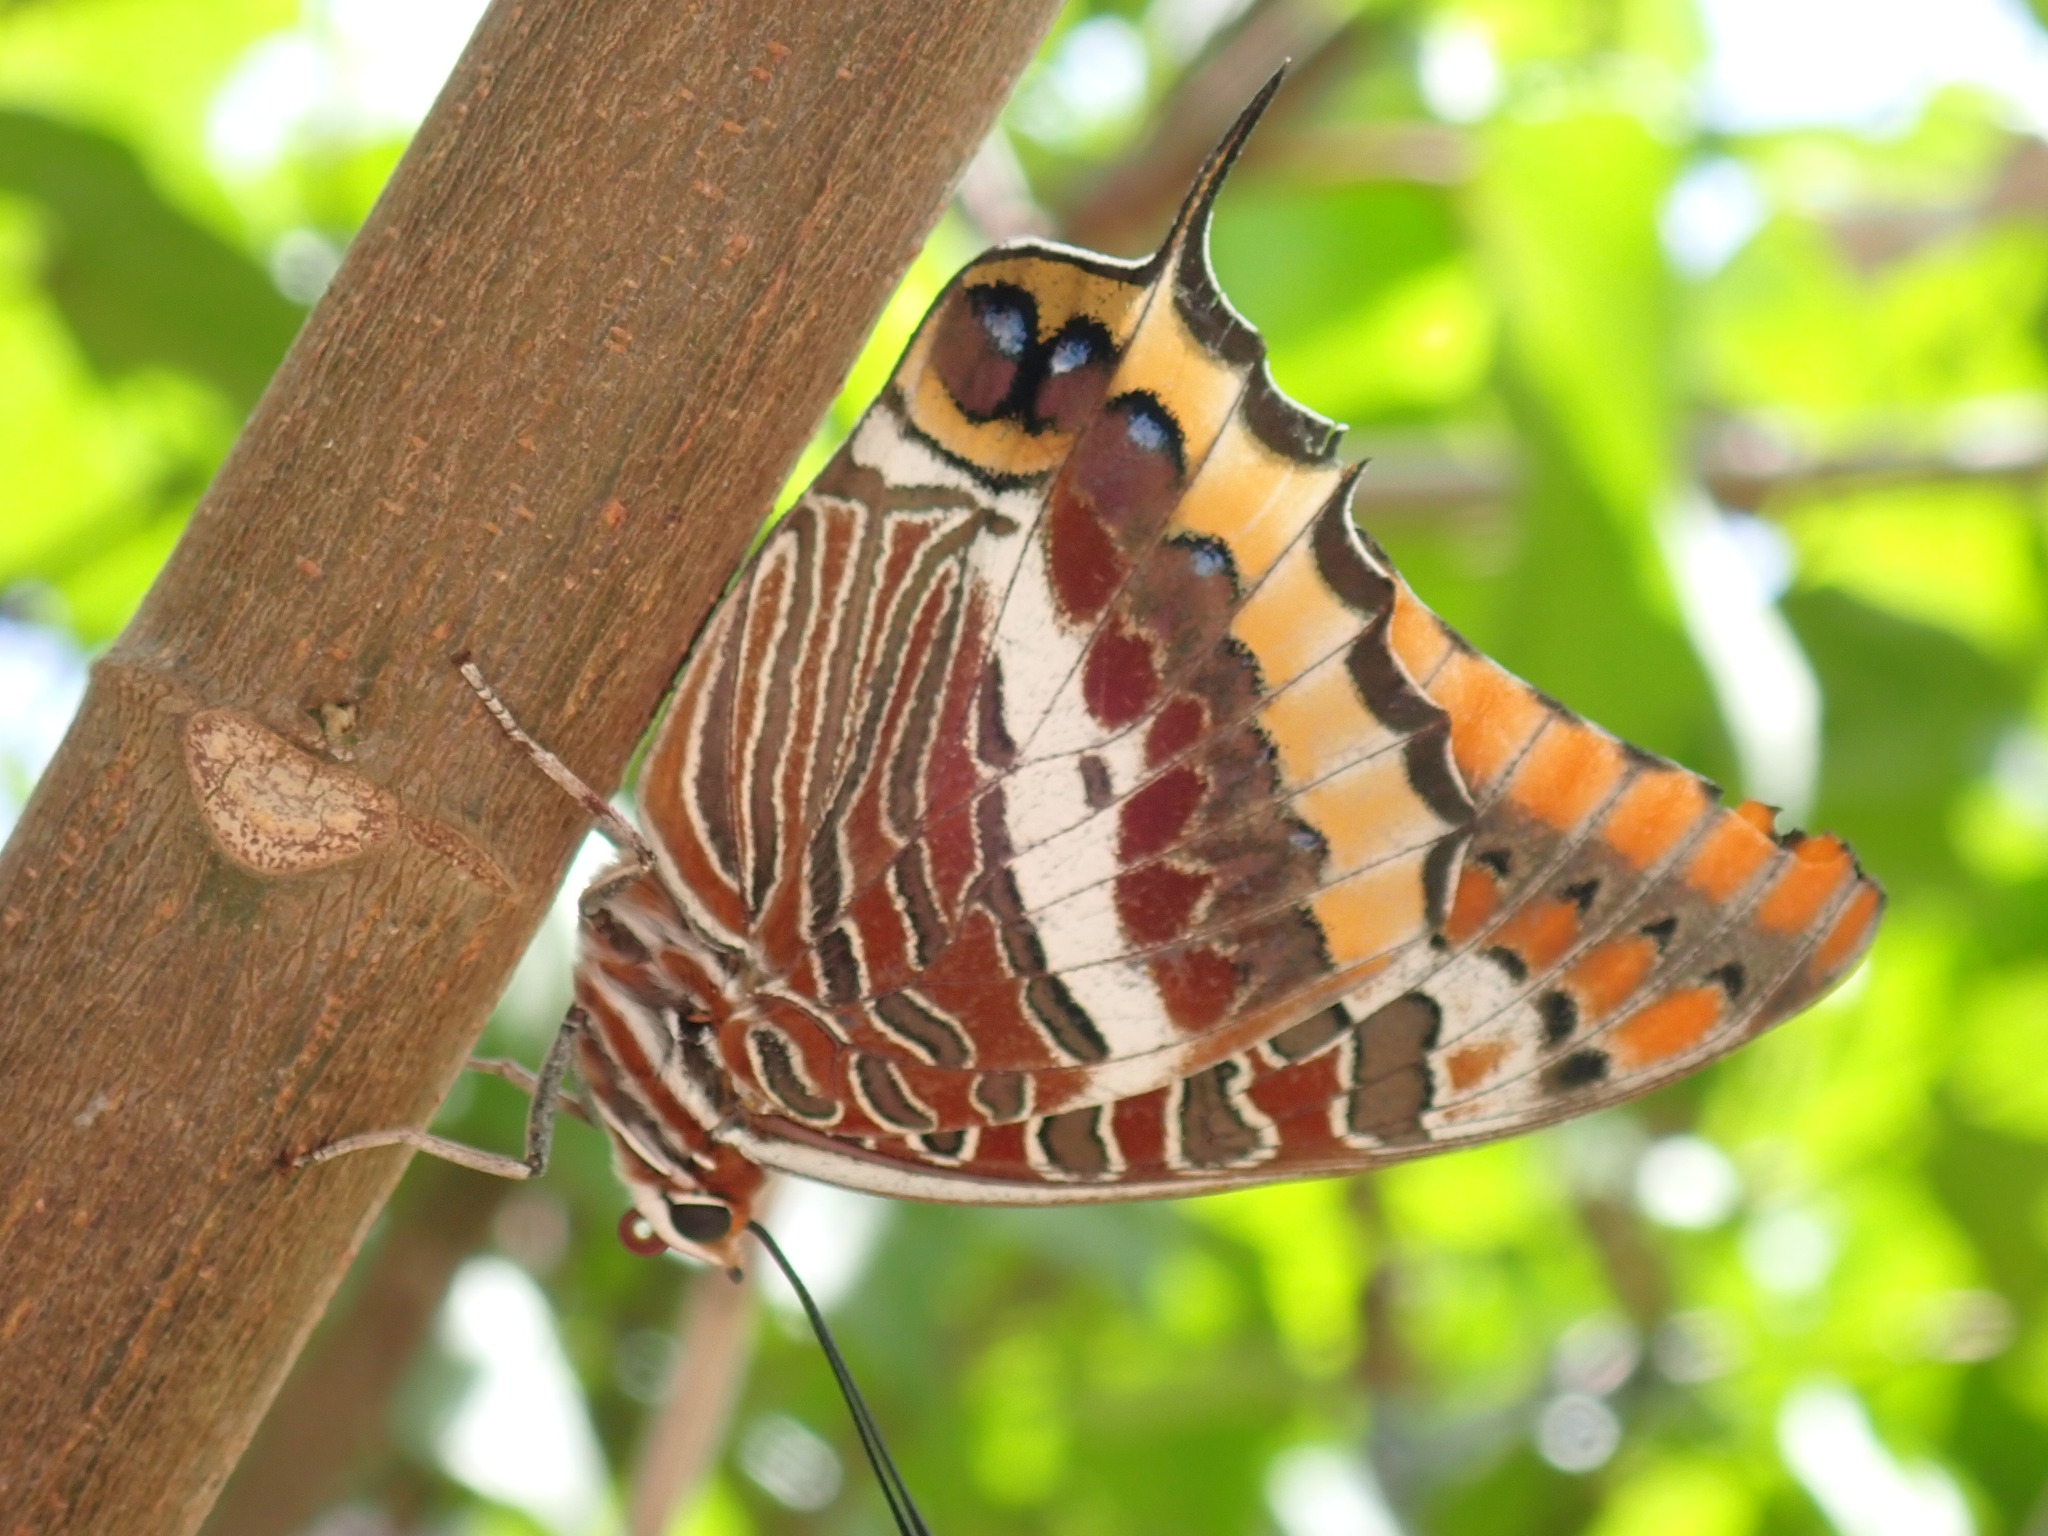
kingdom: Animalia
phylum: Arthropoda
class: Insecta
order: Lepidoptera
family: Nymphalidae
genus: Charaxes
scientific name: Charaxes jasius
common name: Two tailed pasha
